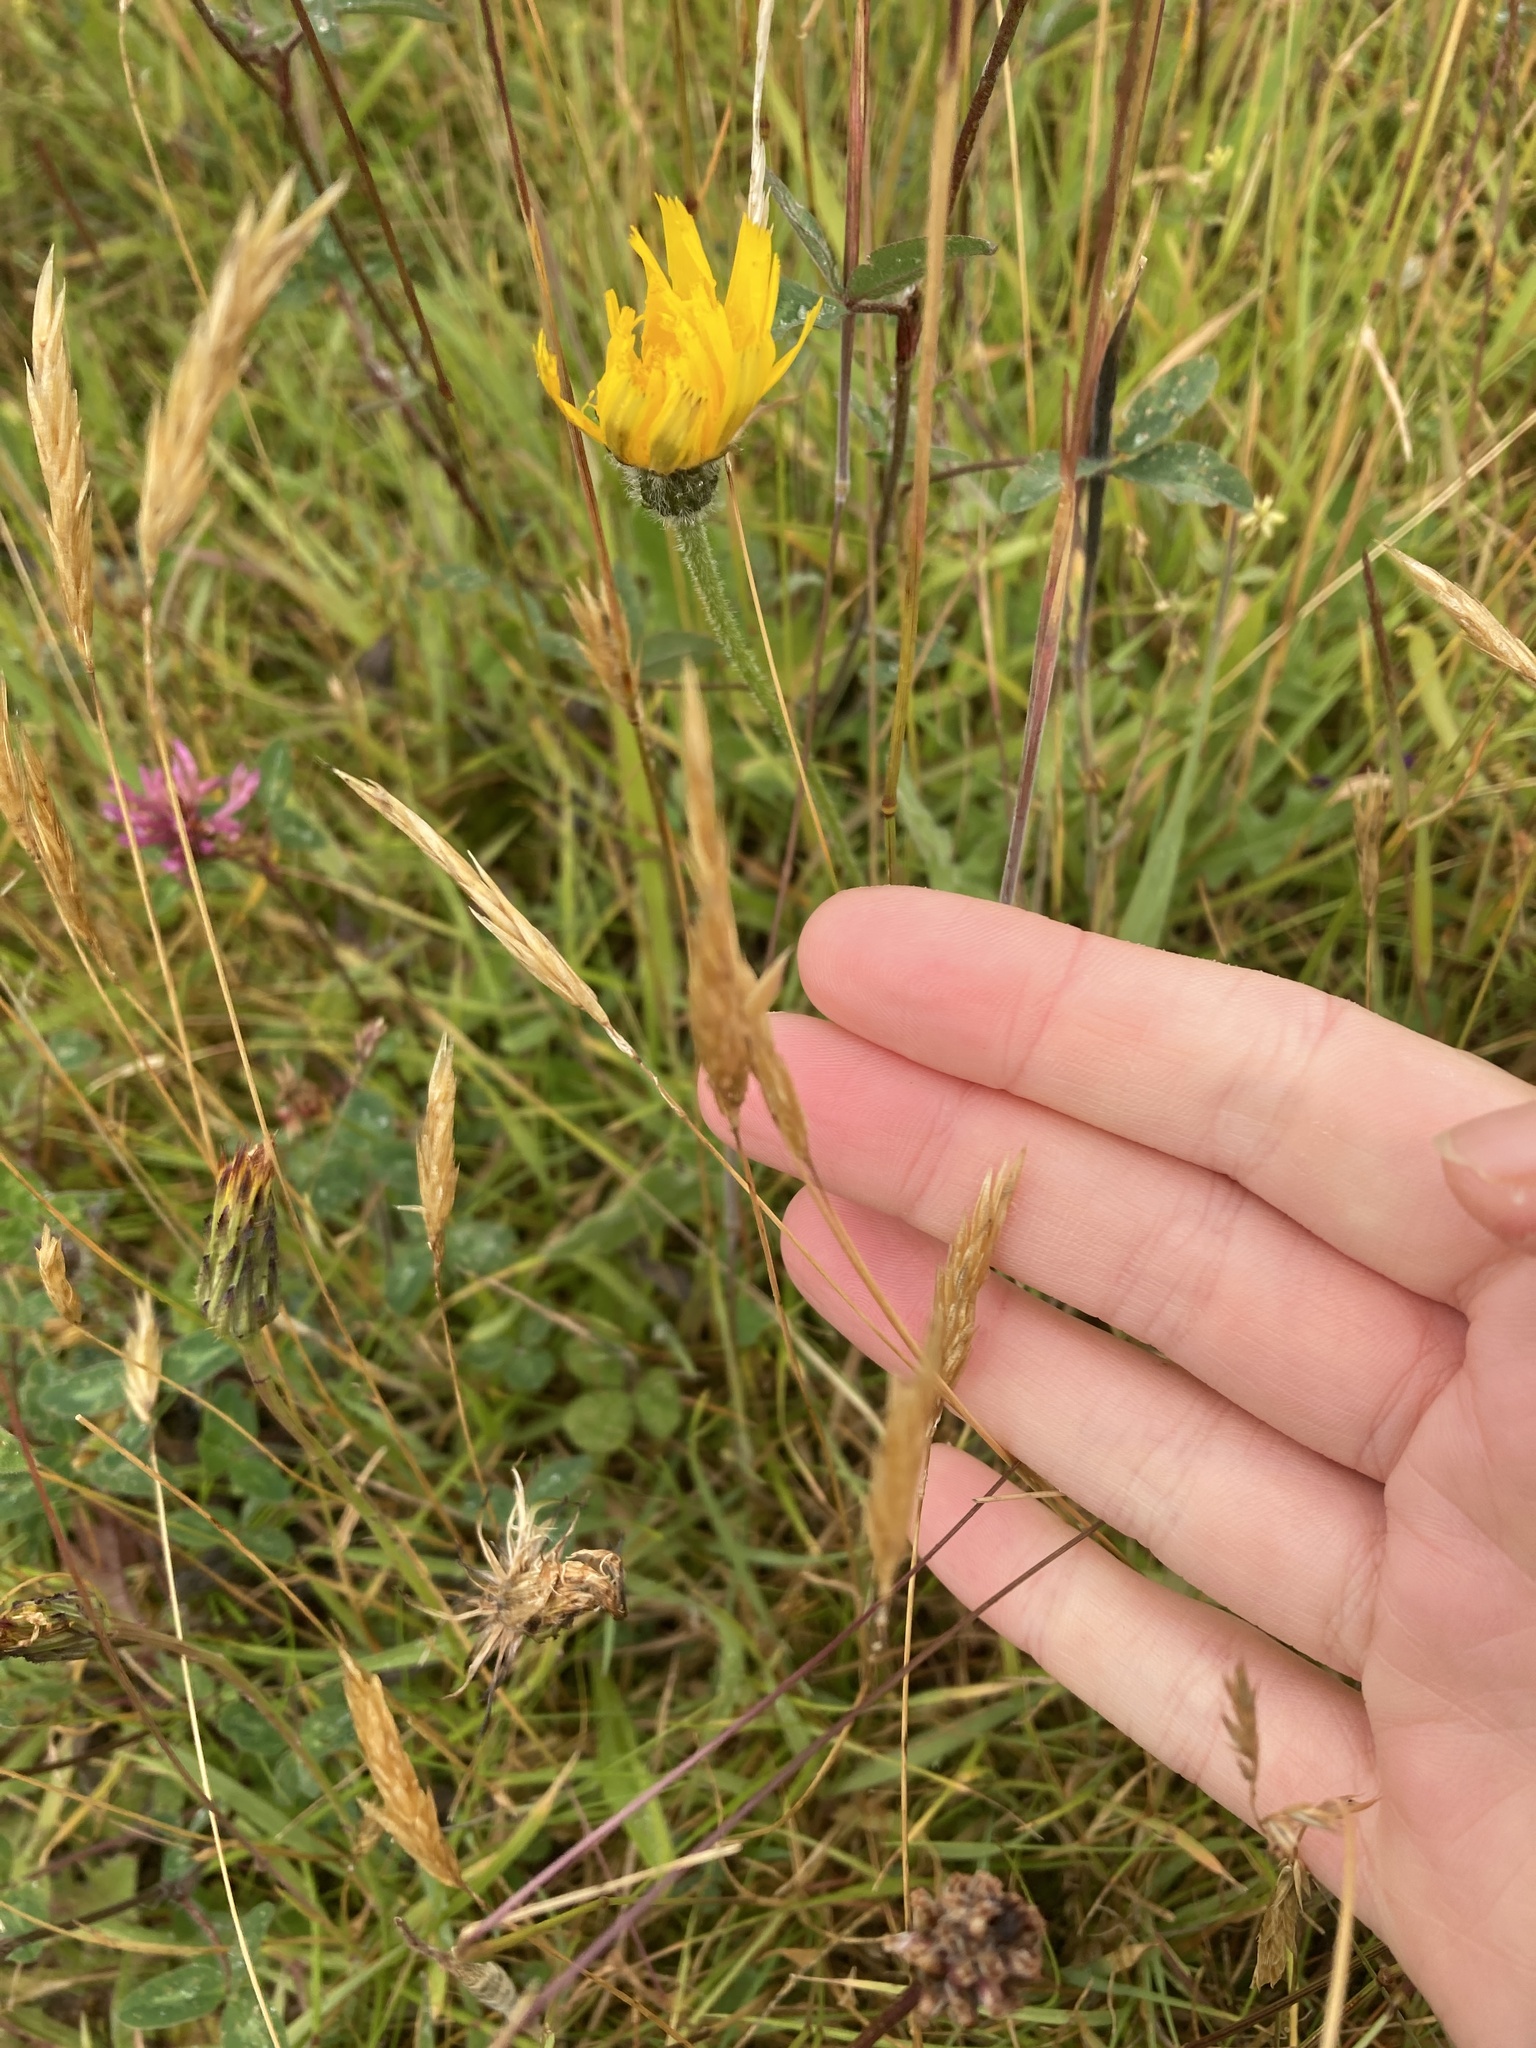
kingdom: Plantae
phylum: Tracheophyta
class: Liliopsida
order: Poales
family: Poaceae
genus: Anthoxanthum
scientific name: Anthoxanthum odoratum
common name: Sweet vernalgrass
